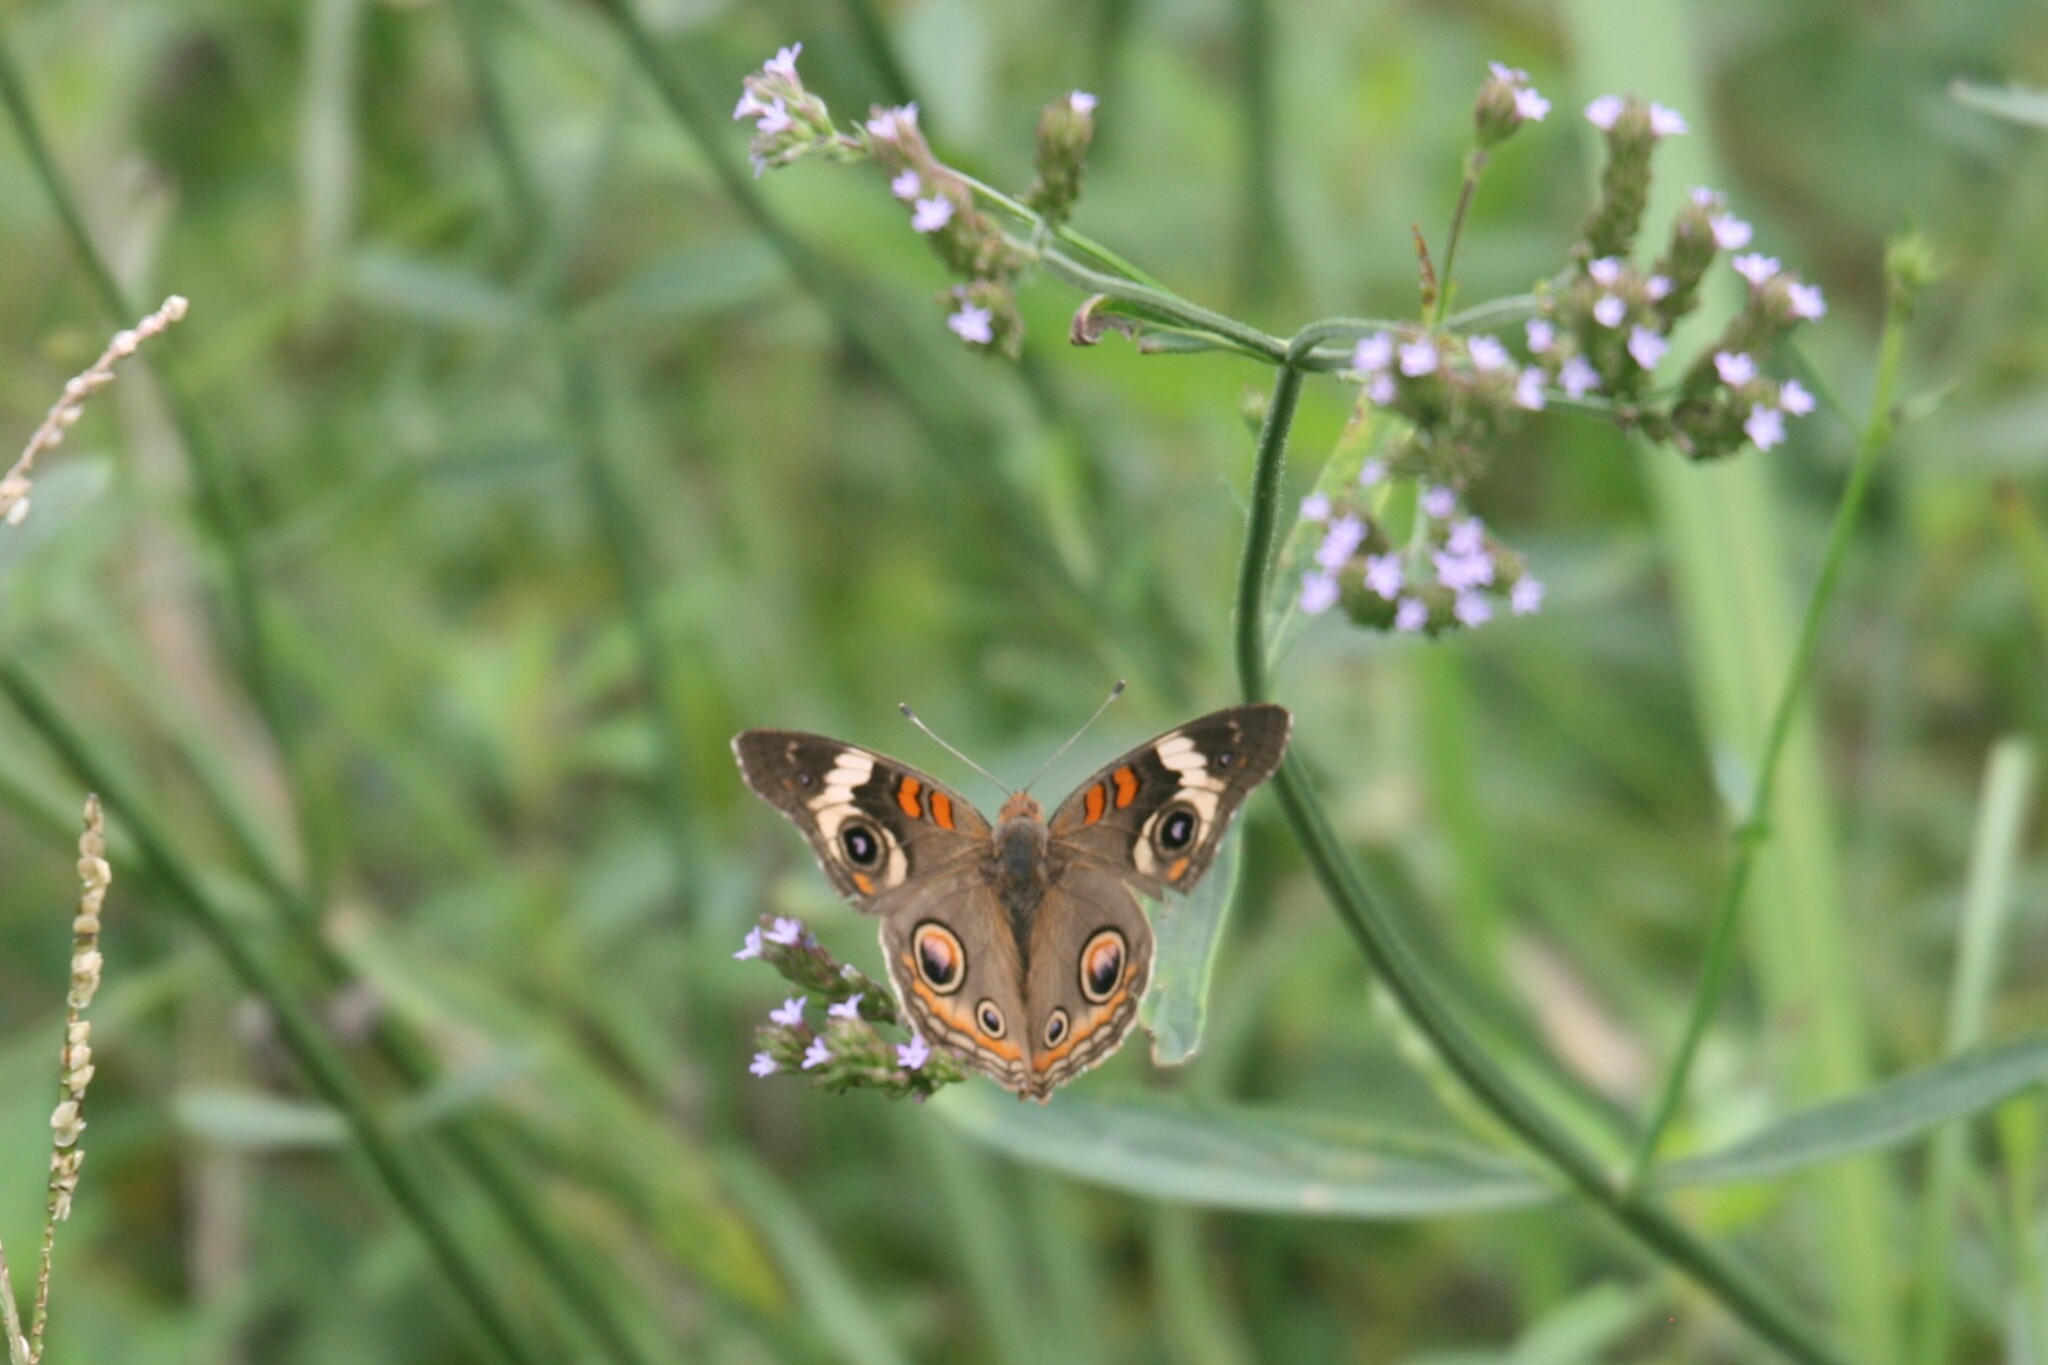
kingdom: Animalia
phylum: Arthropoda
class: Insecta
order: Lepidoptera
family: Nymphalidae
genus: Junonia
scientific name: Junonia coenia
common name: Common buckeye
